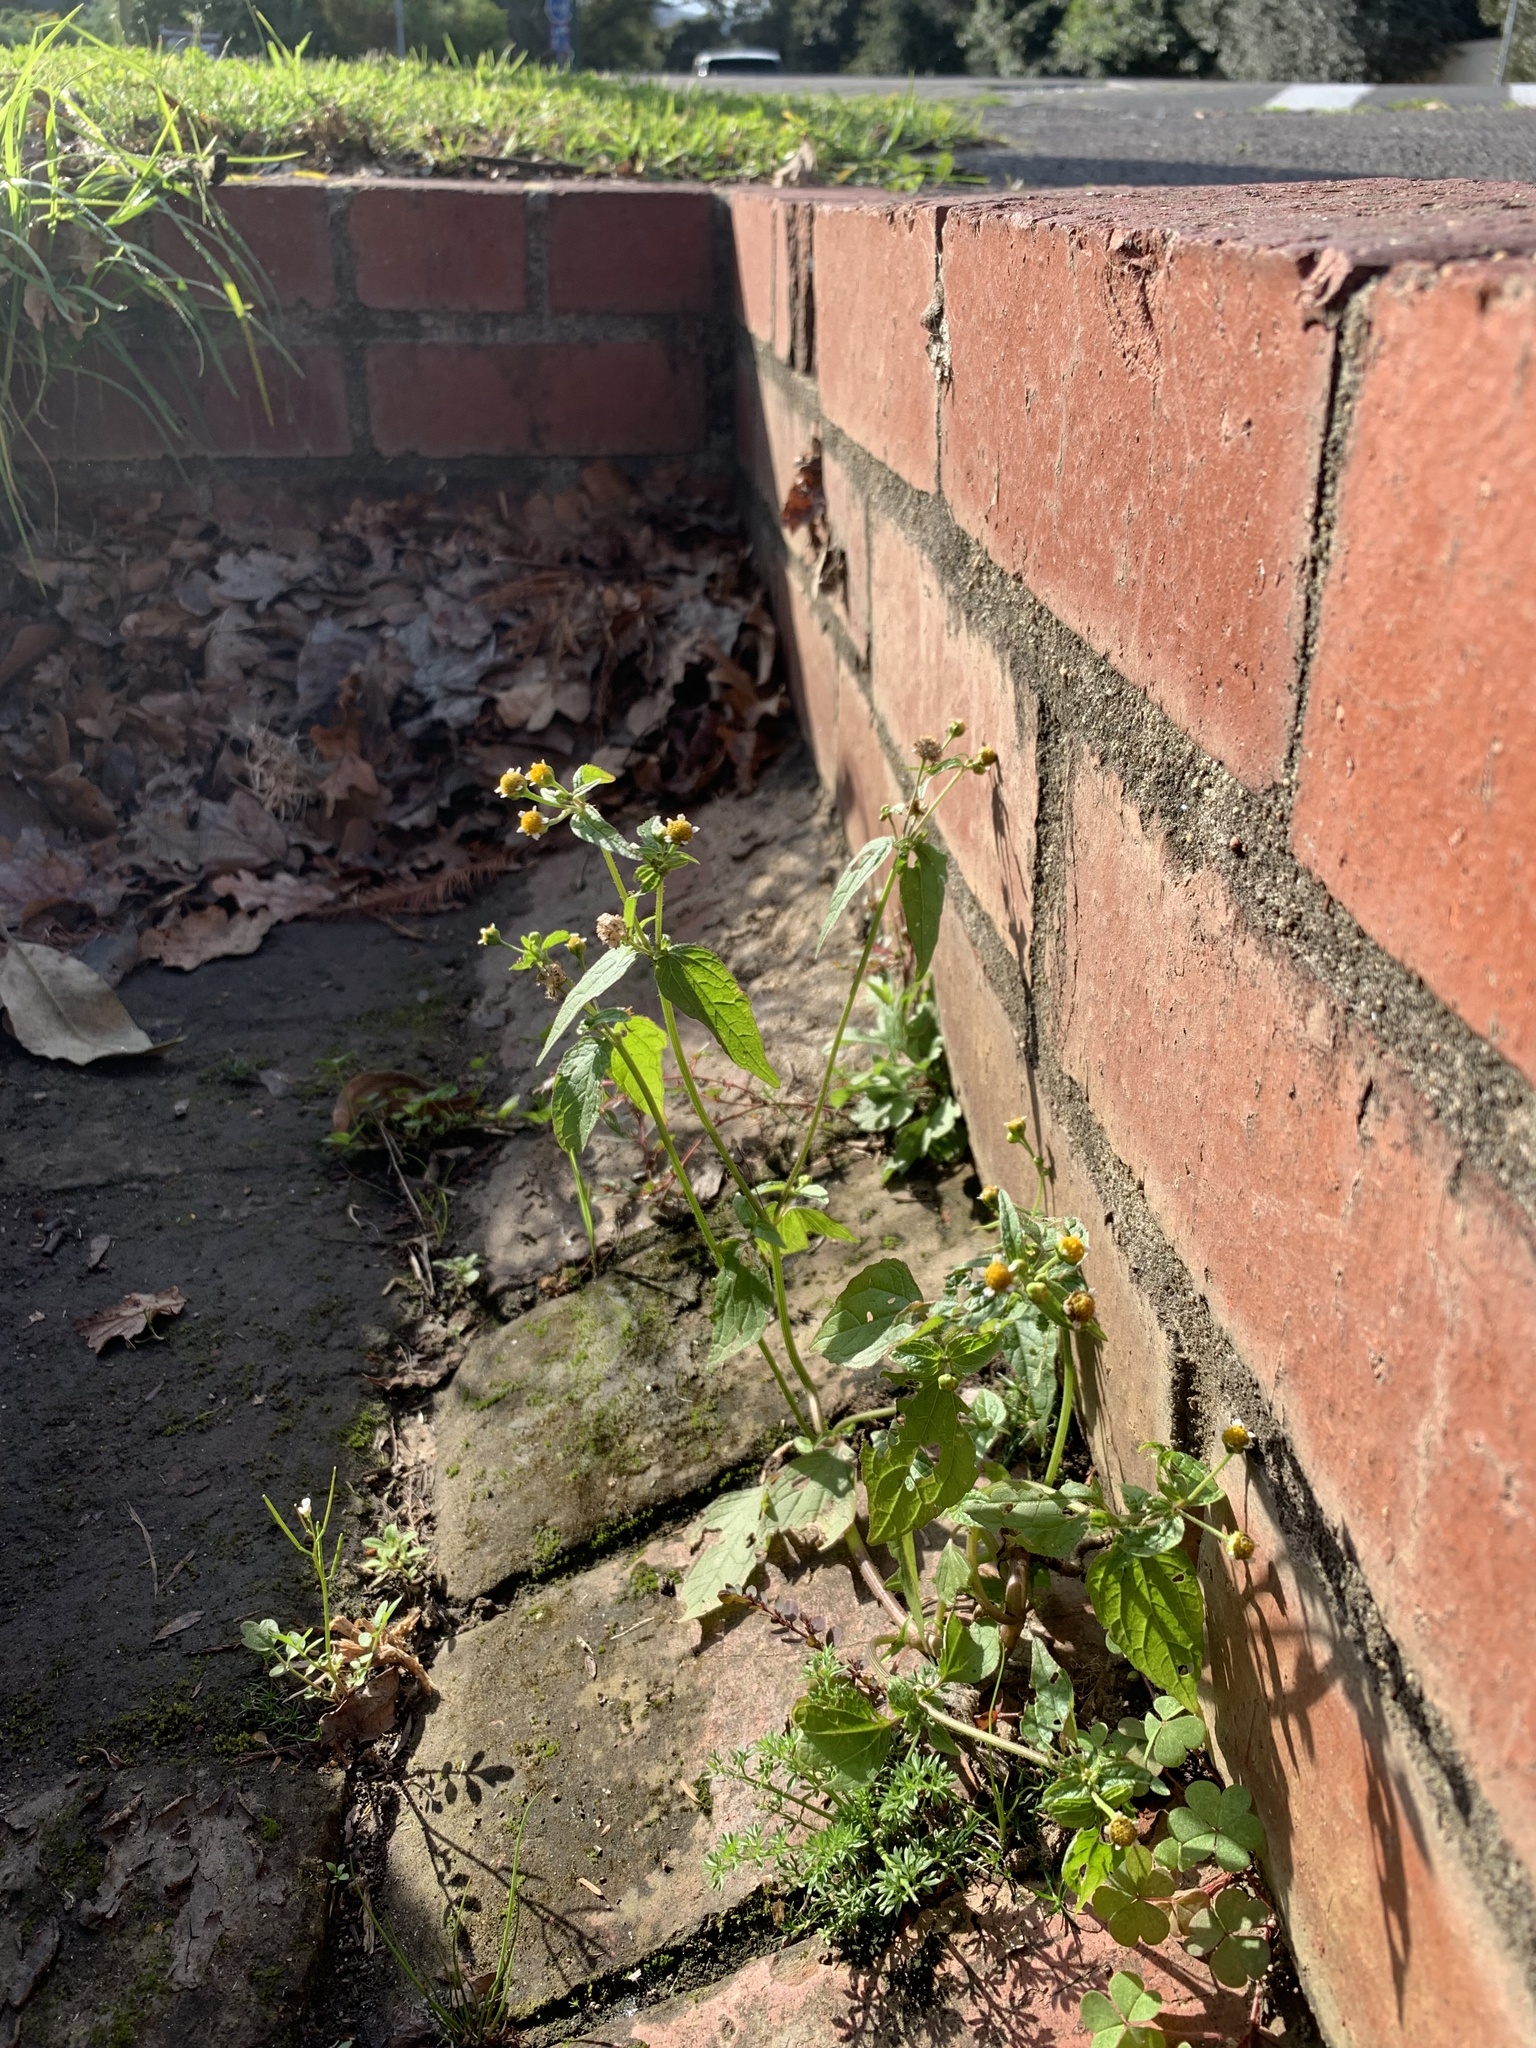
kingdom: Plantae
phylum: Tracheophyta
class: Magnoliopsida
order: Asterales
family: Asteraceae
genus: Galinsoga
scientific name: Galinsoga parviflora
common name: Gallant soldier
